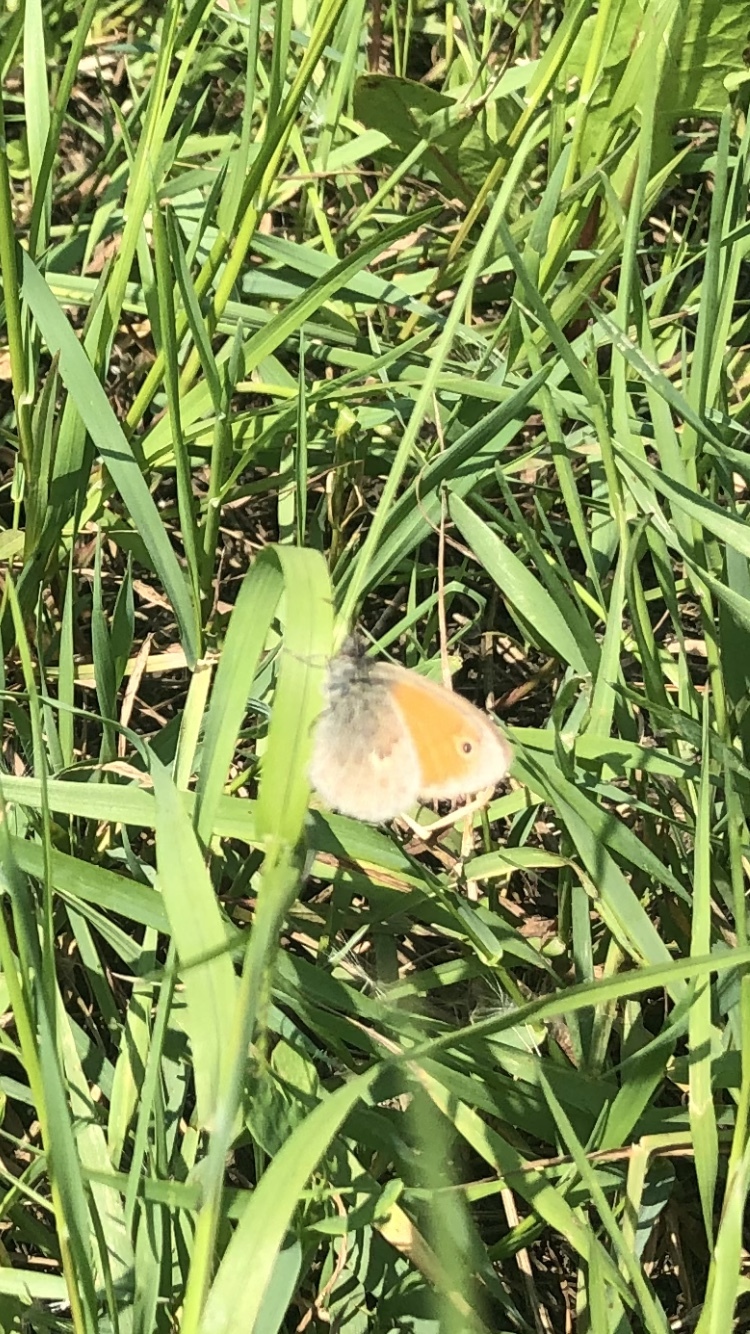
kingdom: Animalia
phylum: Arthropoda
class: Insecta
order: Lepidoptera
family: Nymphalidae
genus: Coenonympha
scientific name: Coenonympha pamphilus
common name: Small heath
